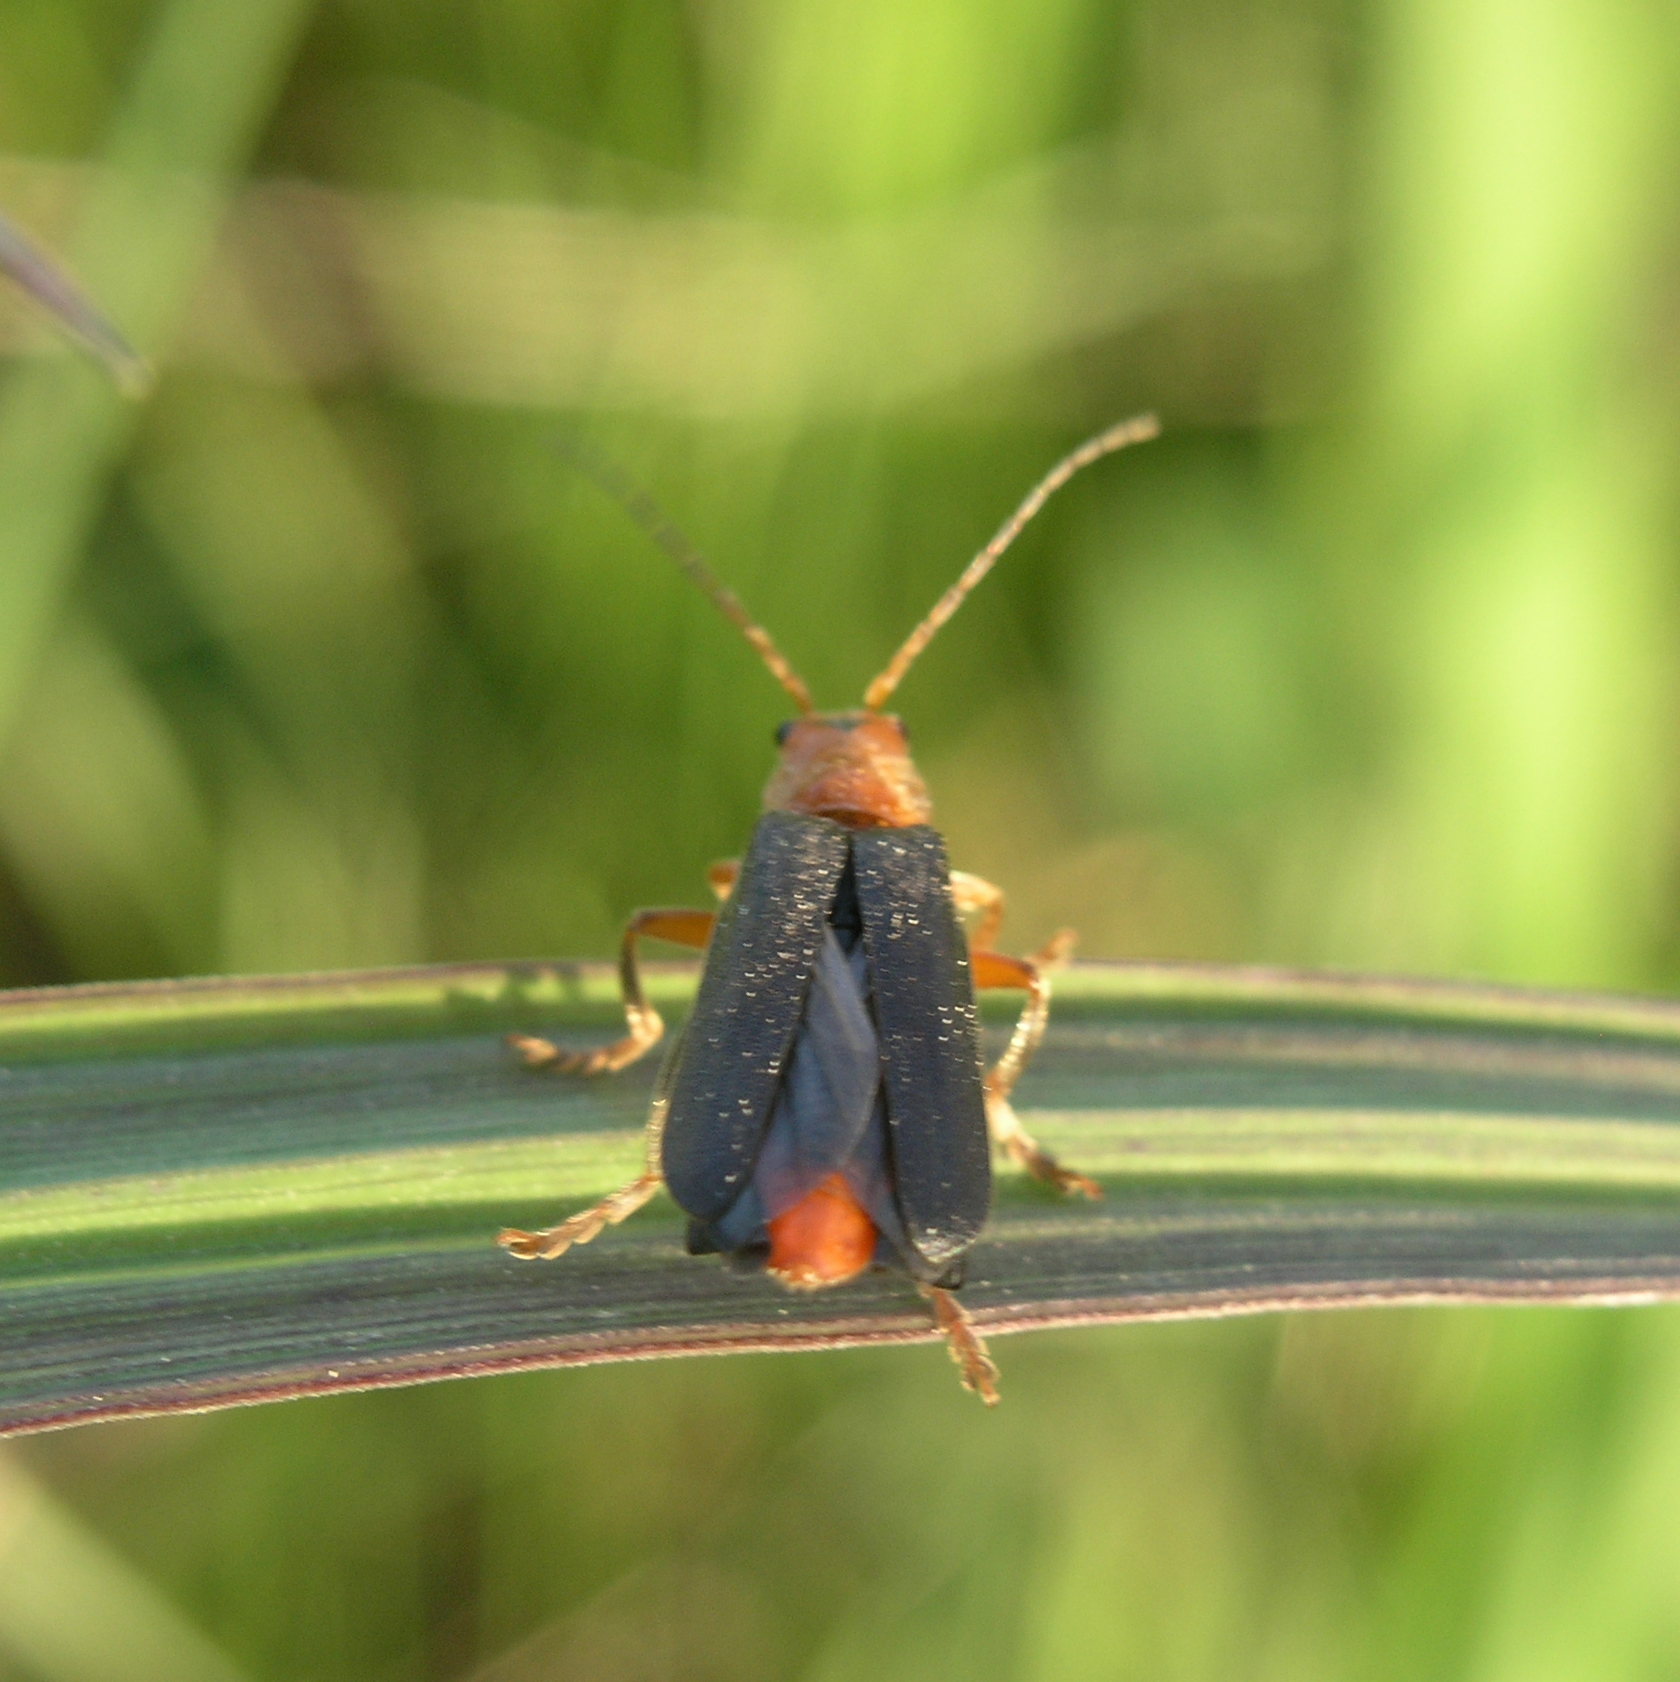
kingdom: Animalia
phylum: Arthropoda
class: Insecta
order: Coleoptera
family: Cantharidae
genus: Cantharis
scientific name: Cantharis livida
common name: Livid soldier beetle
